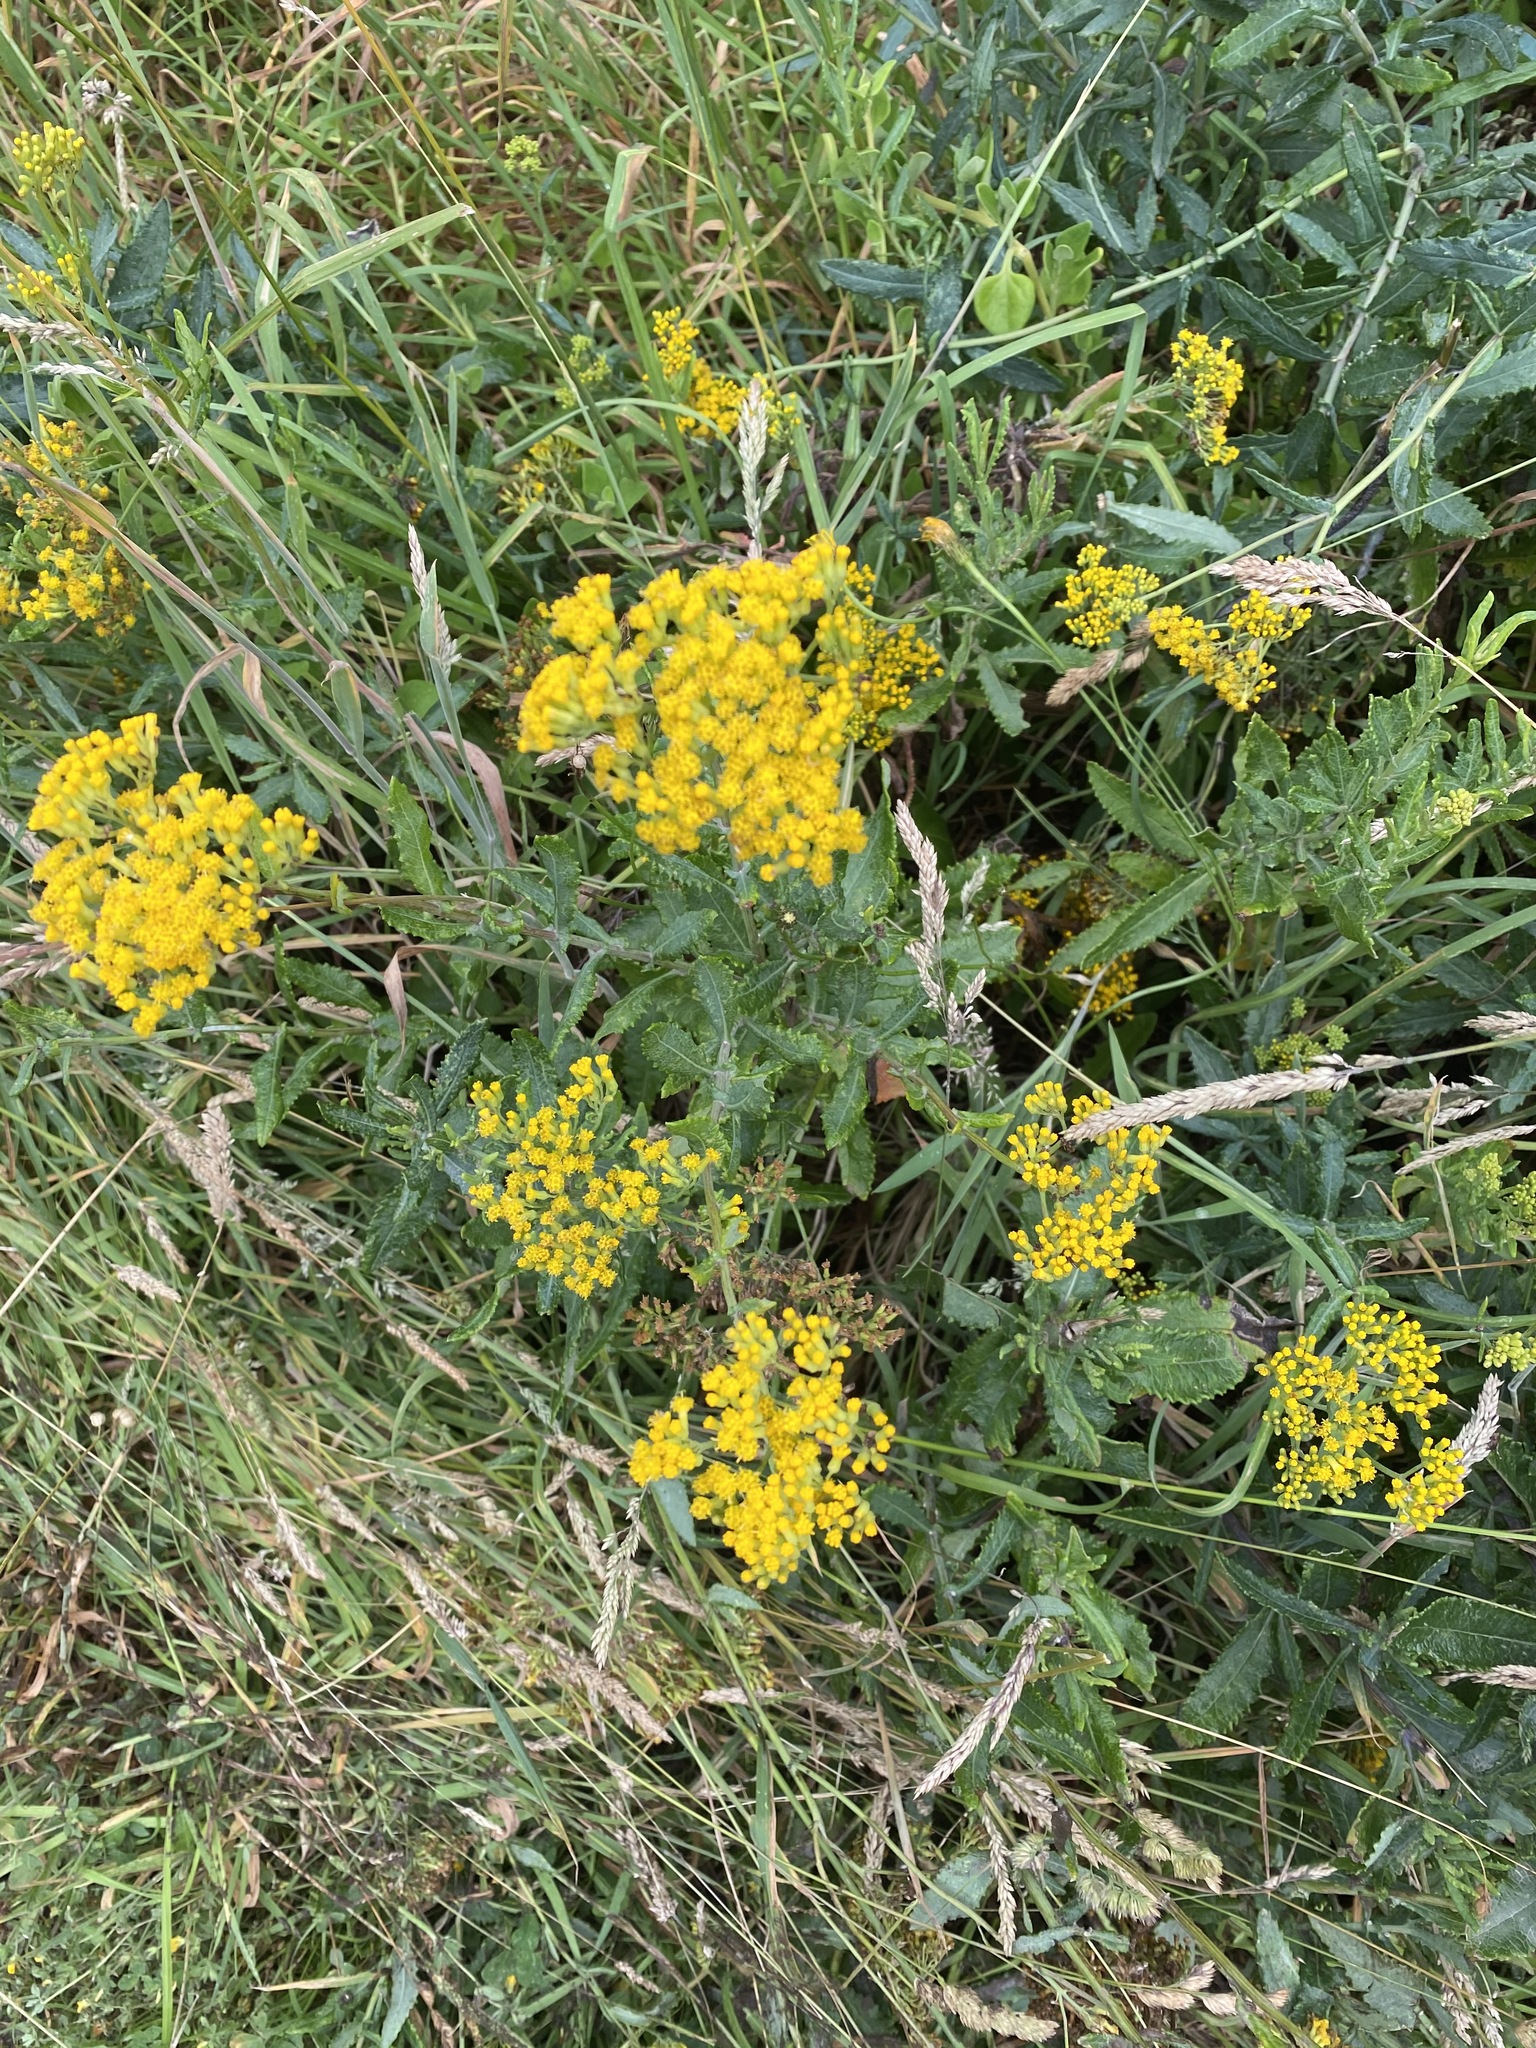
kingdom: Plantae
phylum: Tracheophyta
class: Magnoliopsida
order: Asterales
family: Asteraceae
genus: Senecio
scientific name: Senecio odoratus
